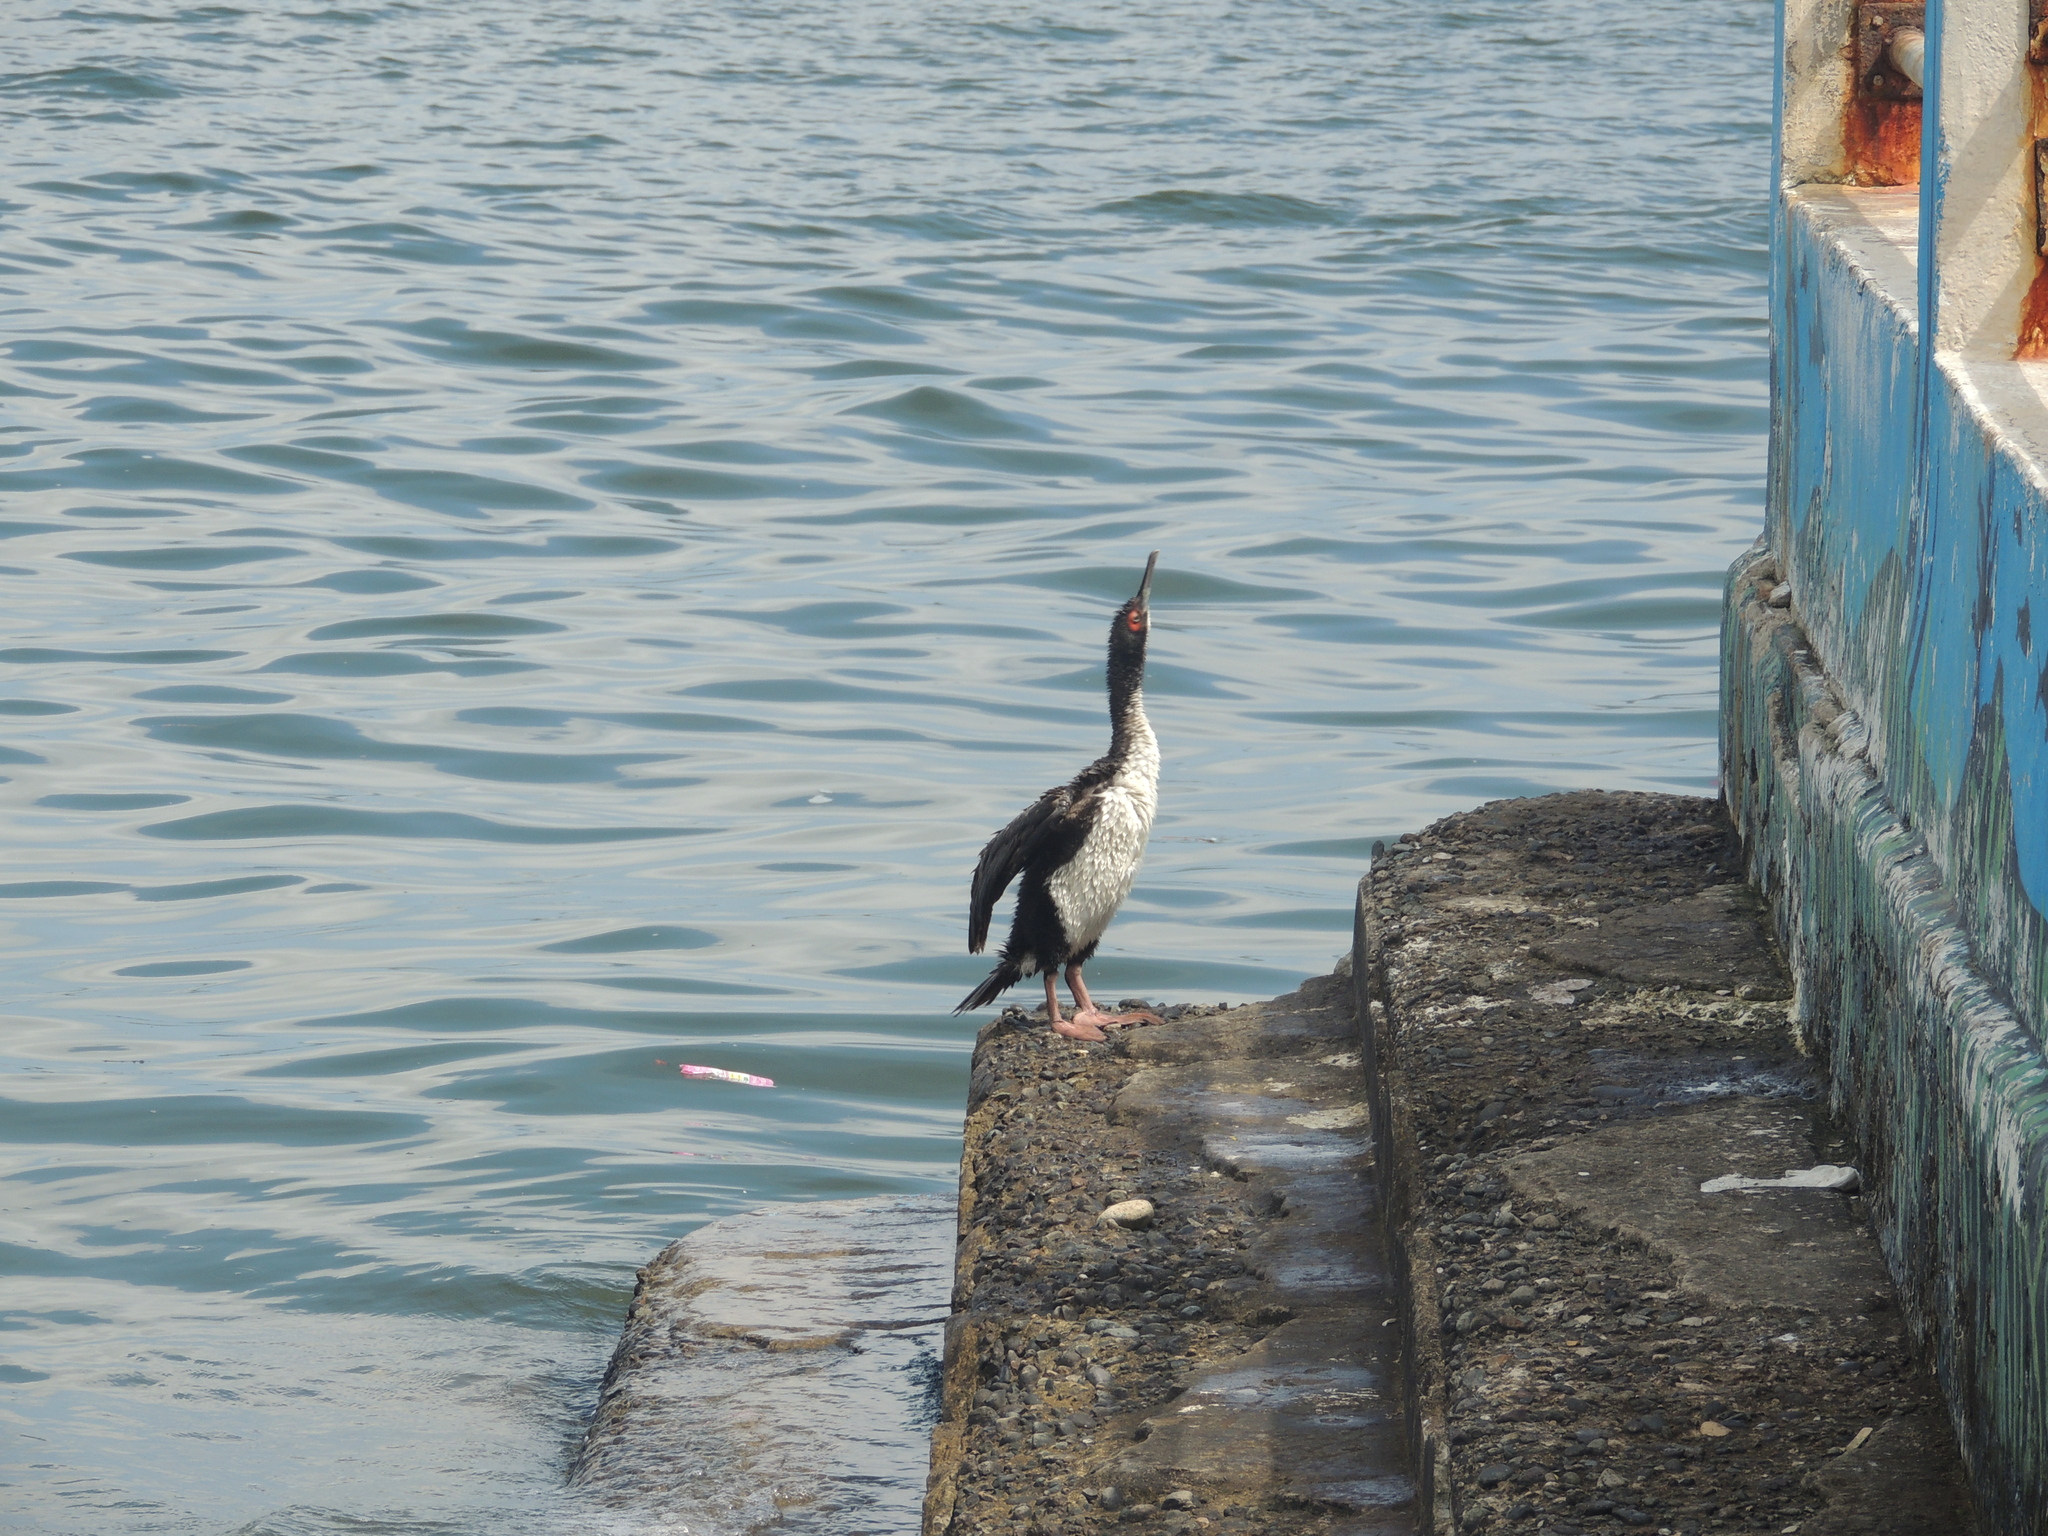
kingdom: Animalia
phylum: Chordata
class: Aves
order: Suliformes
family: Phalacrocoracidae
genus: Leucocarbo
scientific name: Leucocarbo bougainvillii
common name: Guanay cormorant
